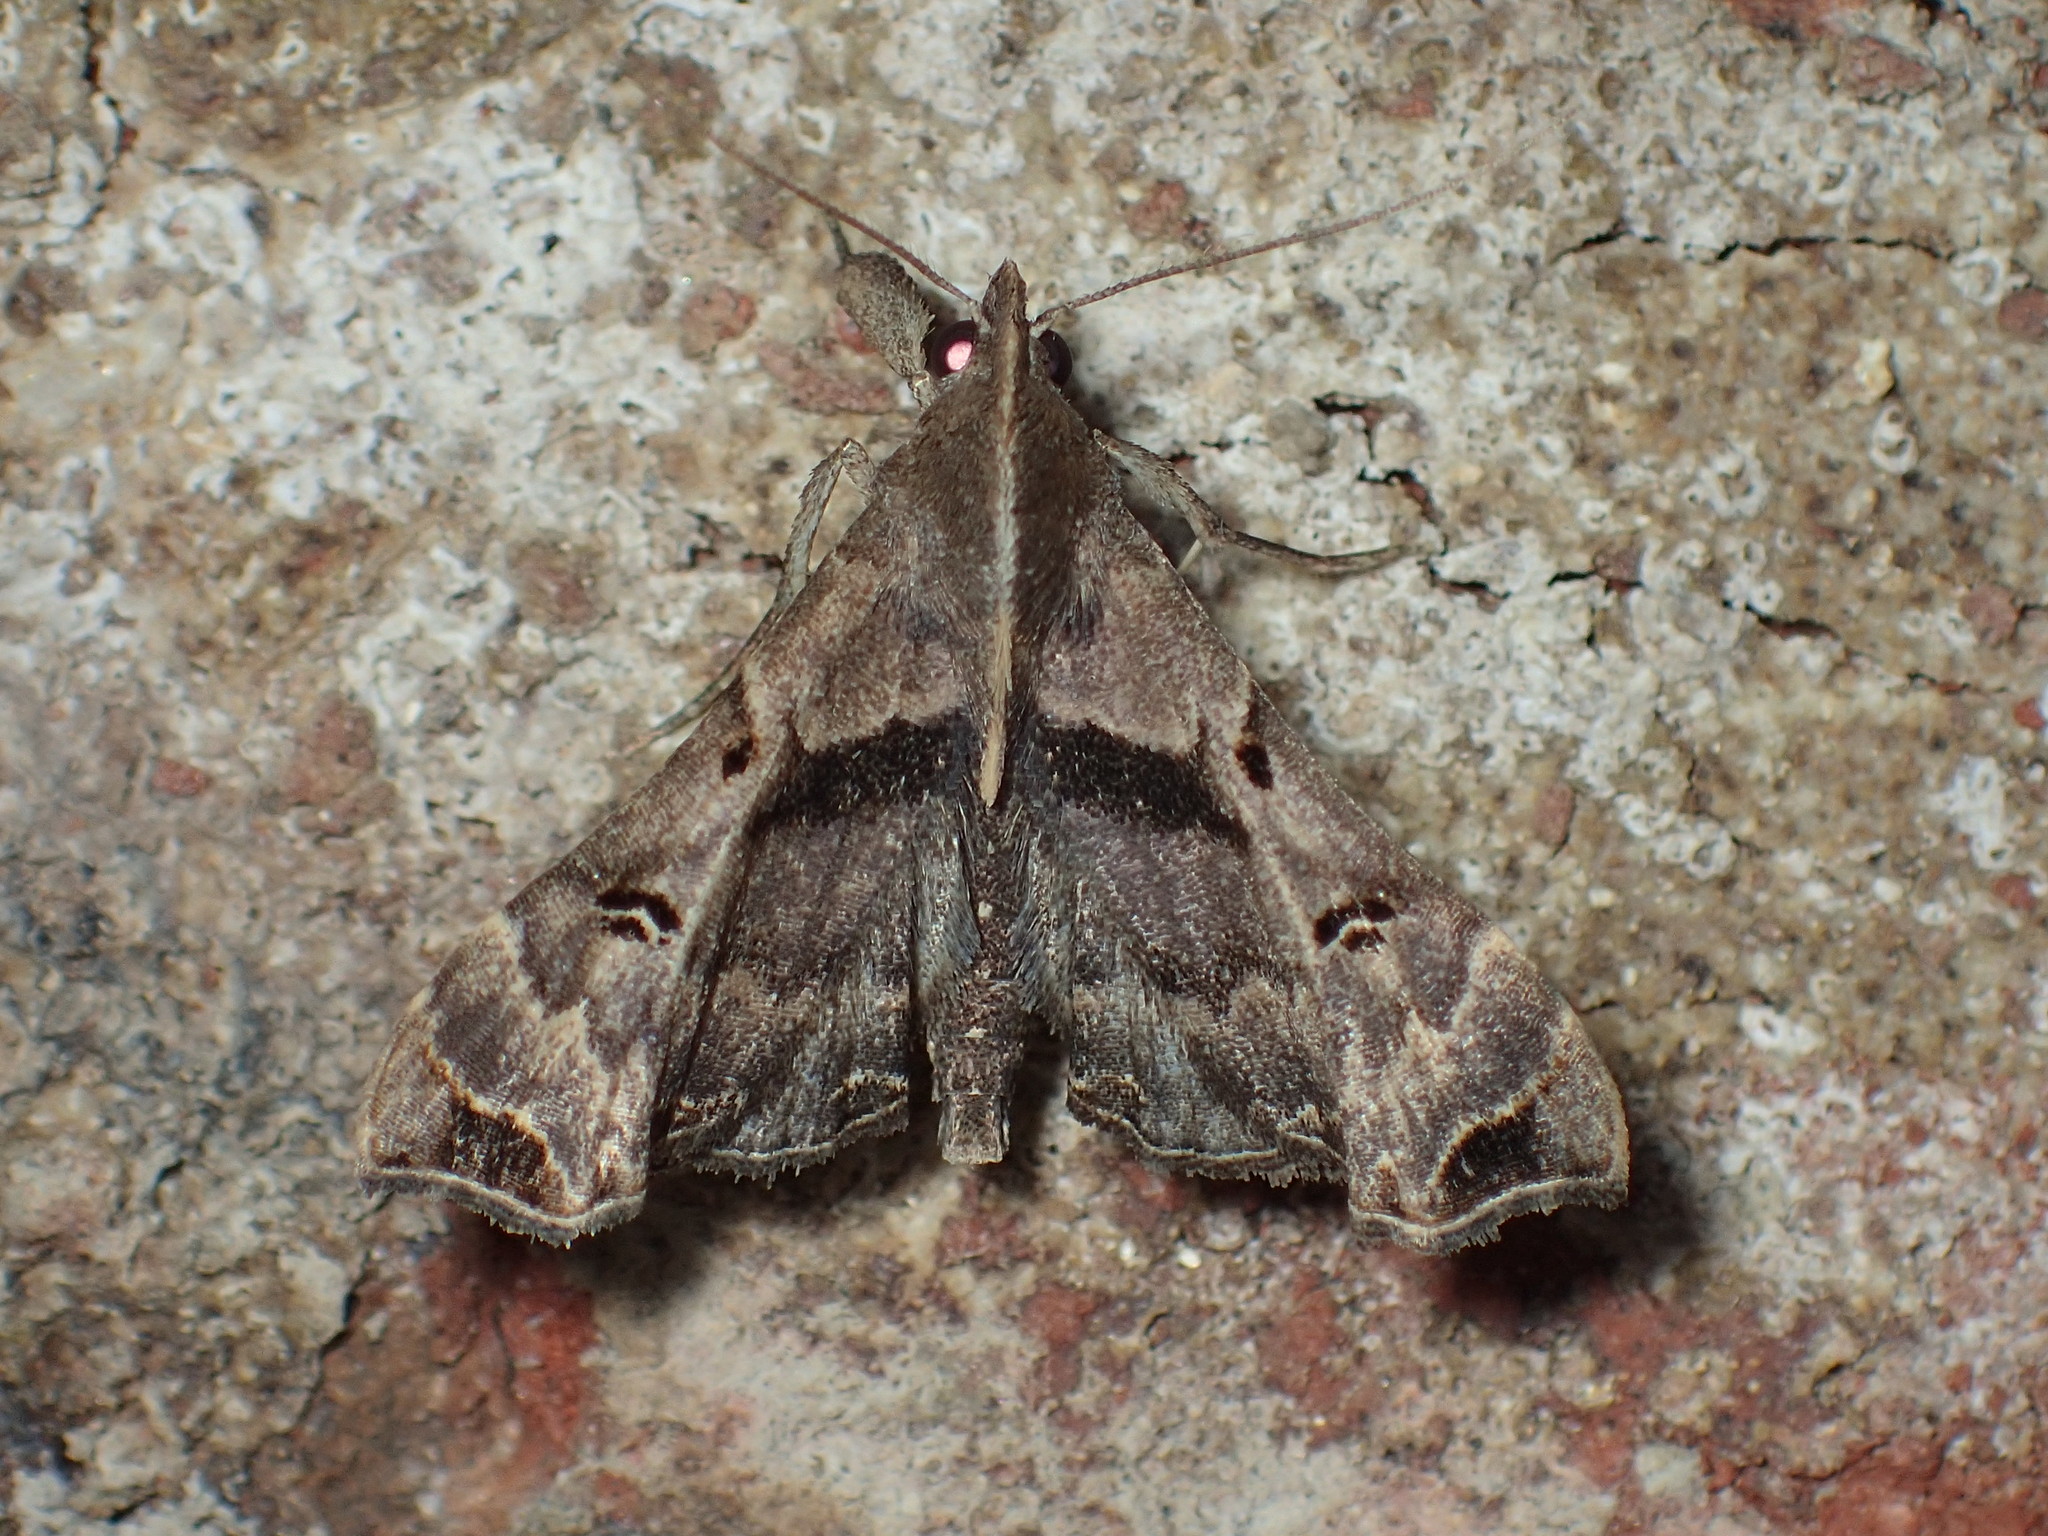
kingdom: Animalia
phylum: Arthropoda
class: Insecta
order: Lepidoptera
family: Erebidae
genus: Palthis
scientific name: Palthis asopialis
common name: Faint-spotted palthis moth
